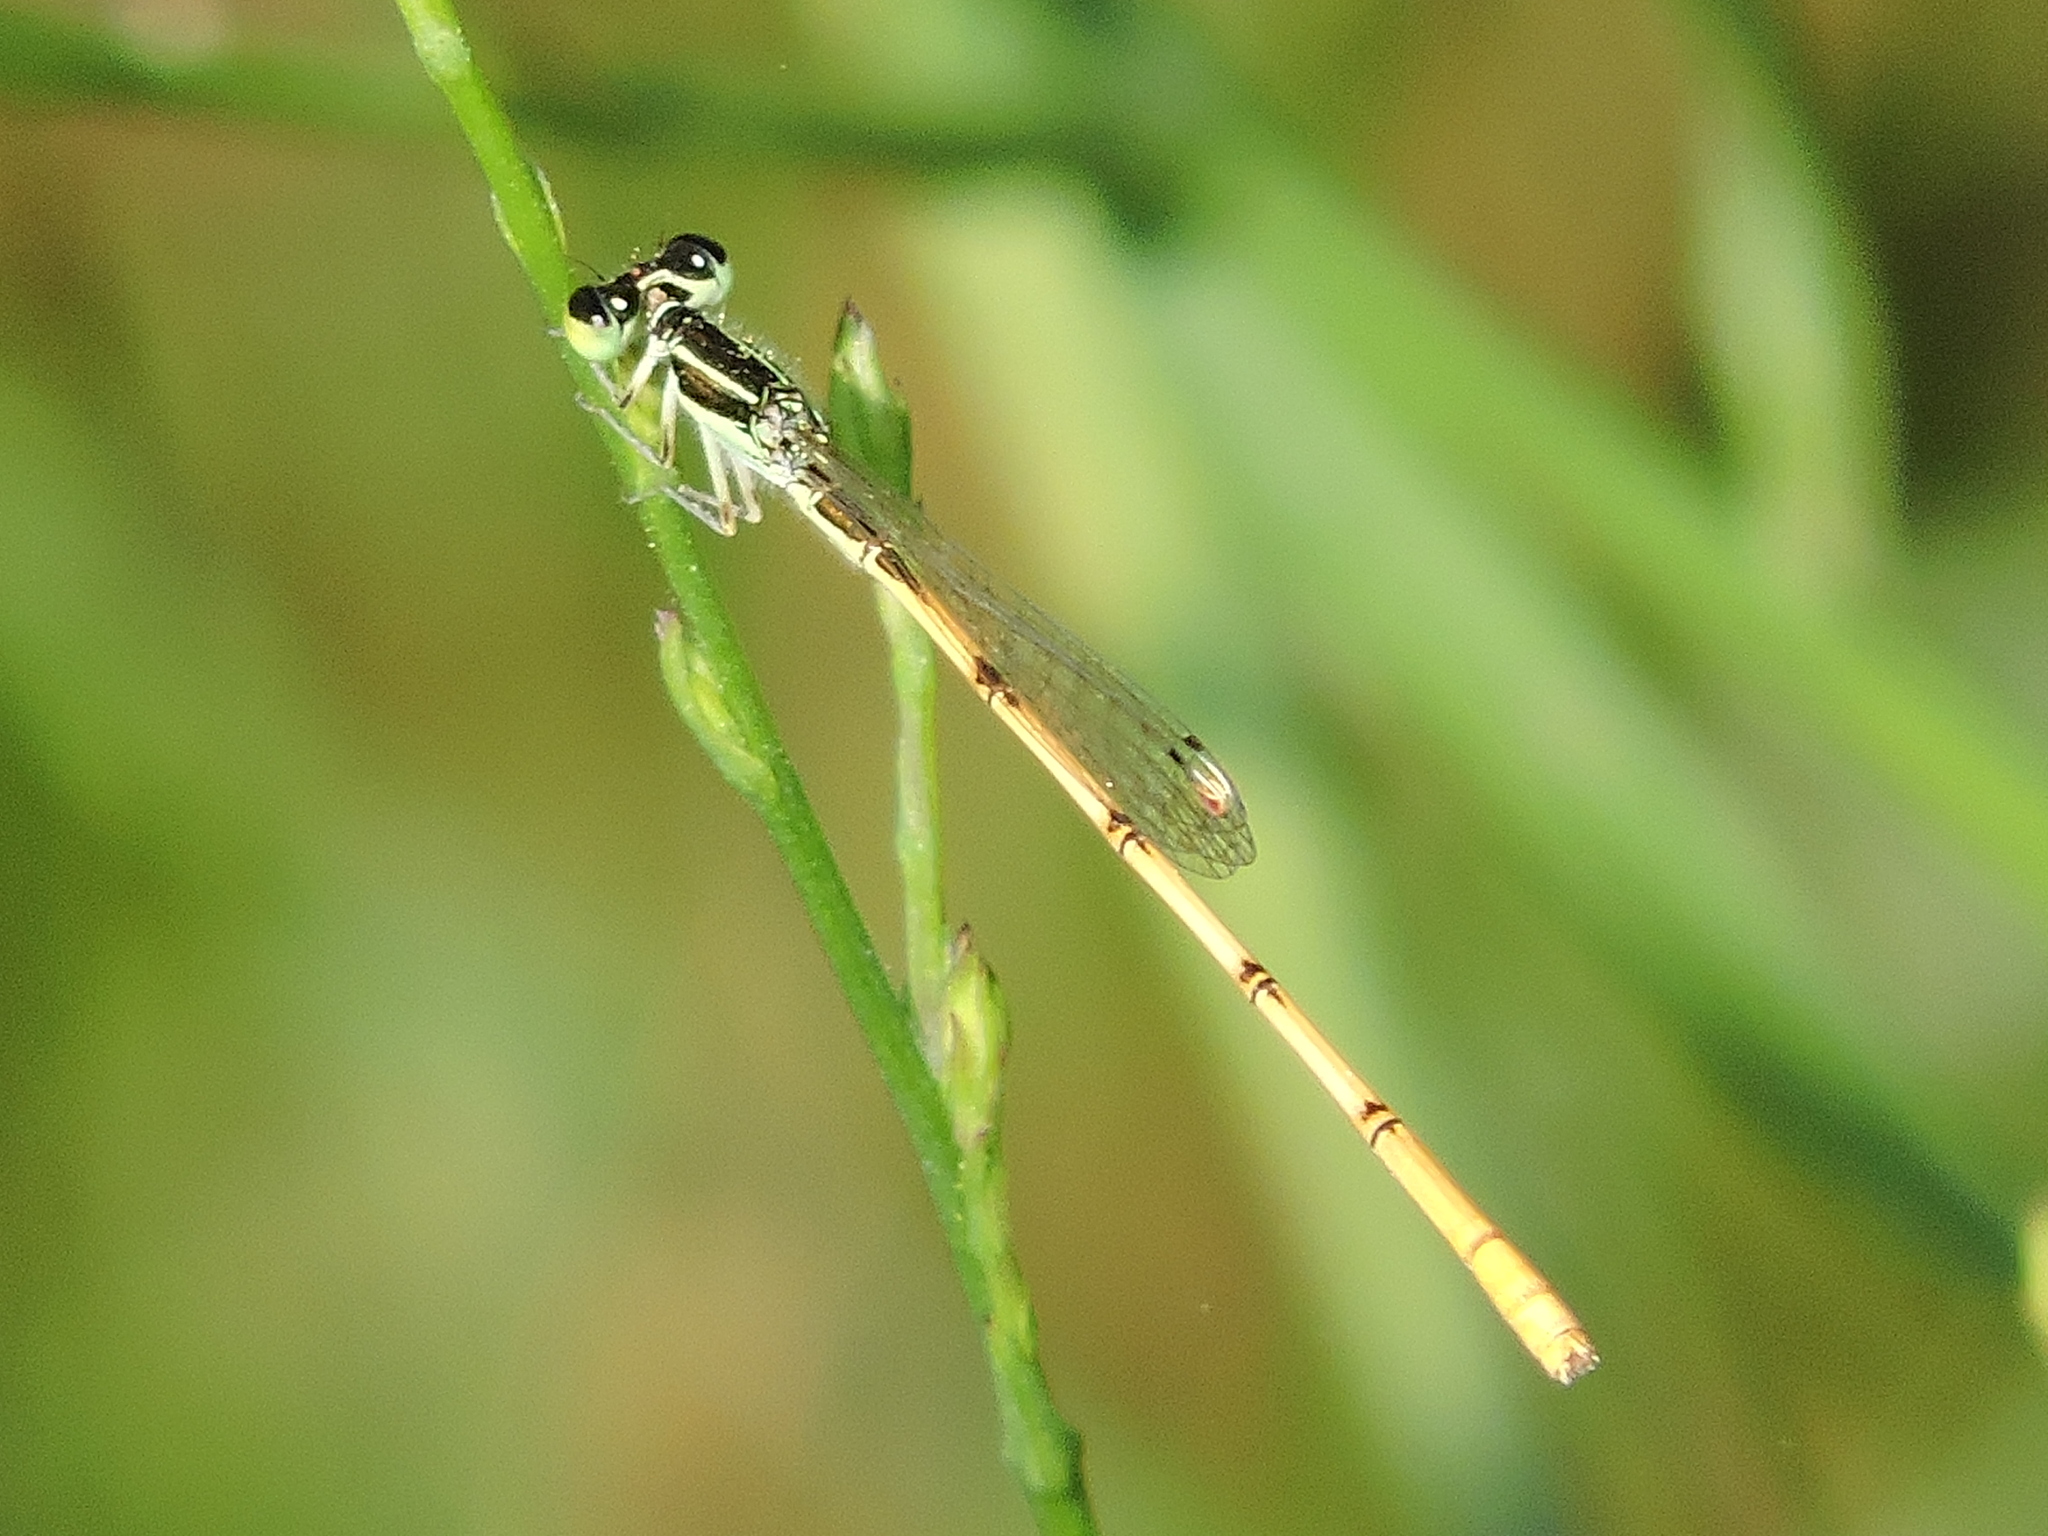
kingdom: Animalia
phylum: Arthropoda
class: Insecta
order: Odonata
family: Coenagrionidae
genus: Ischnura
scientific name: Ischnura hastata
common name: Citrine forktail
